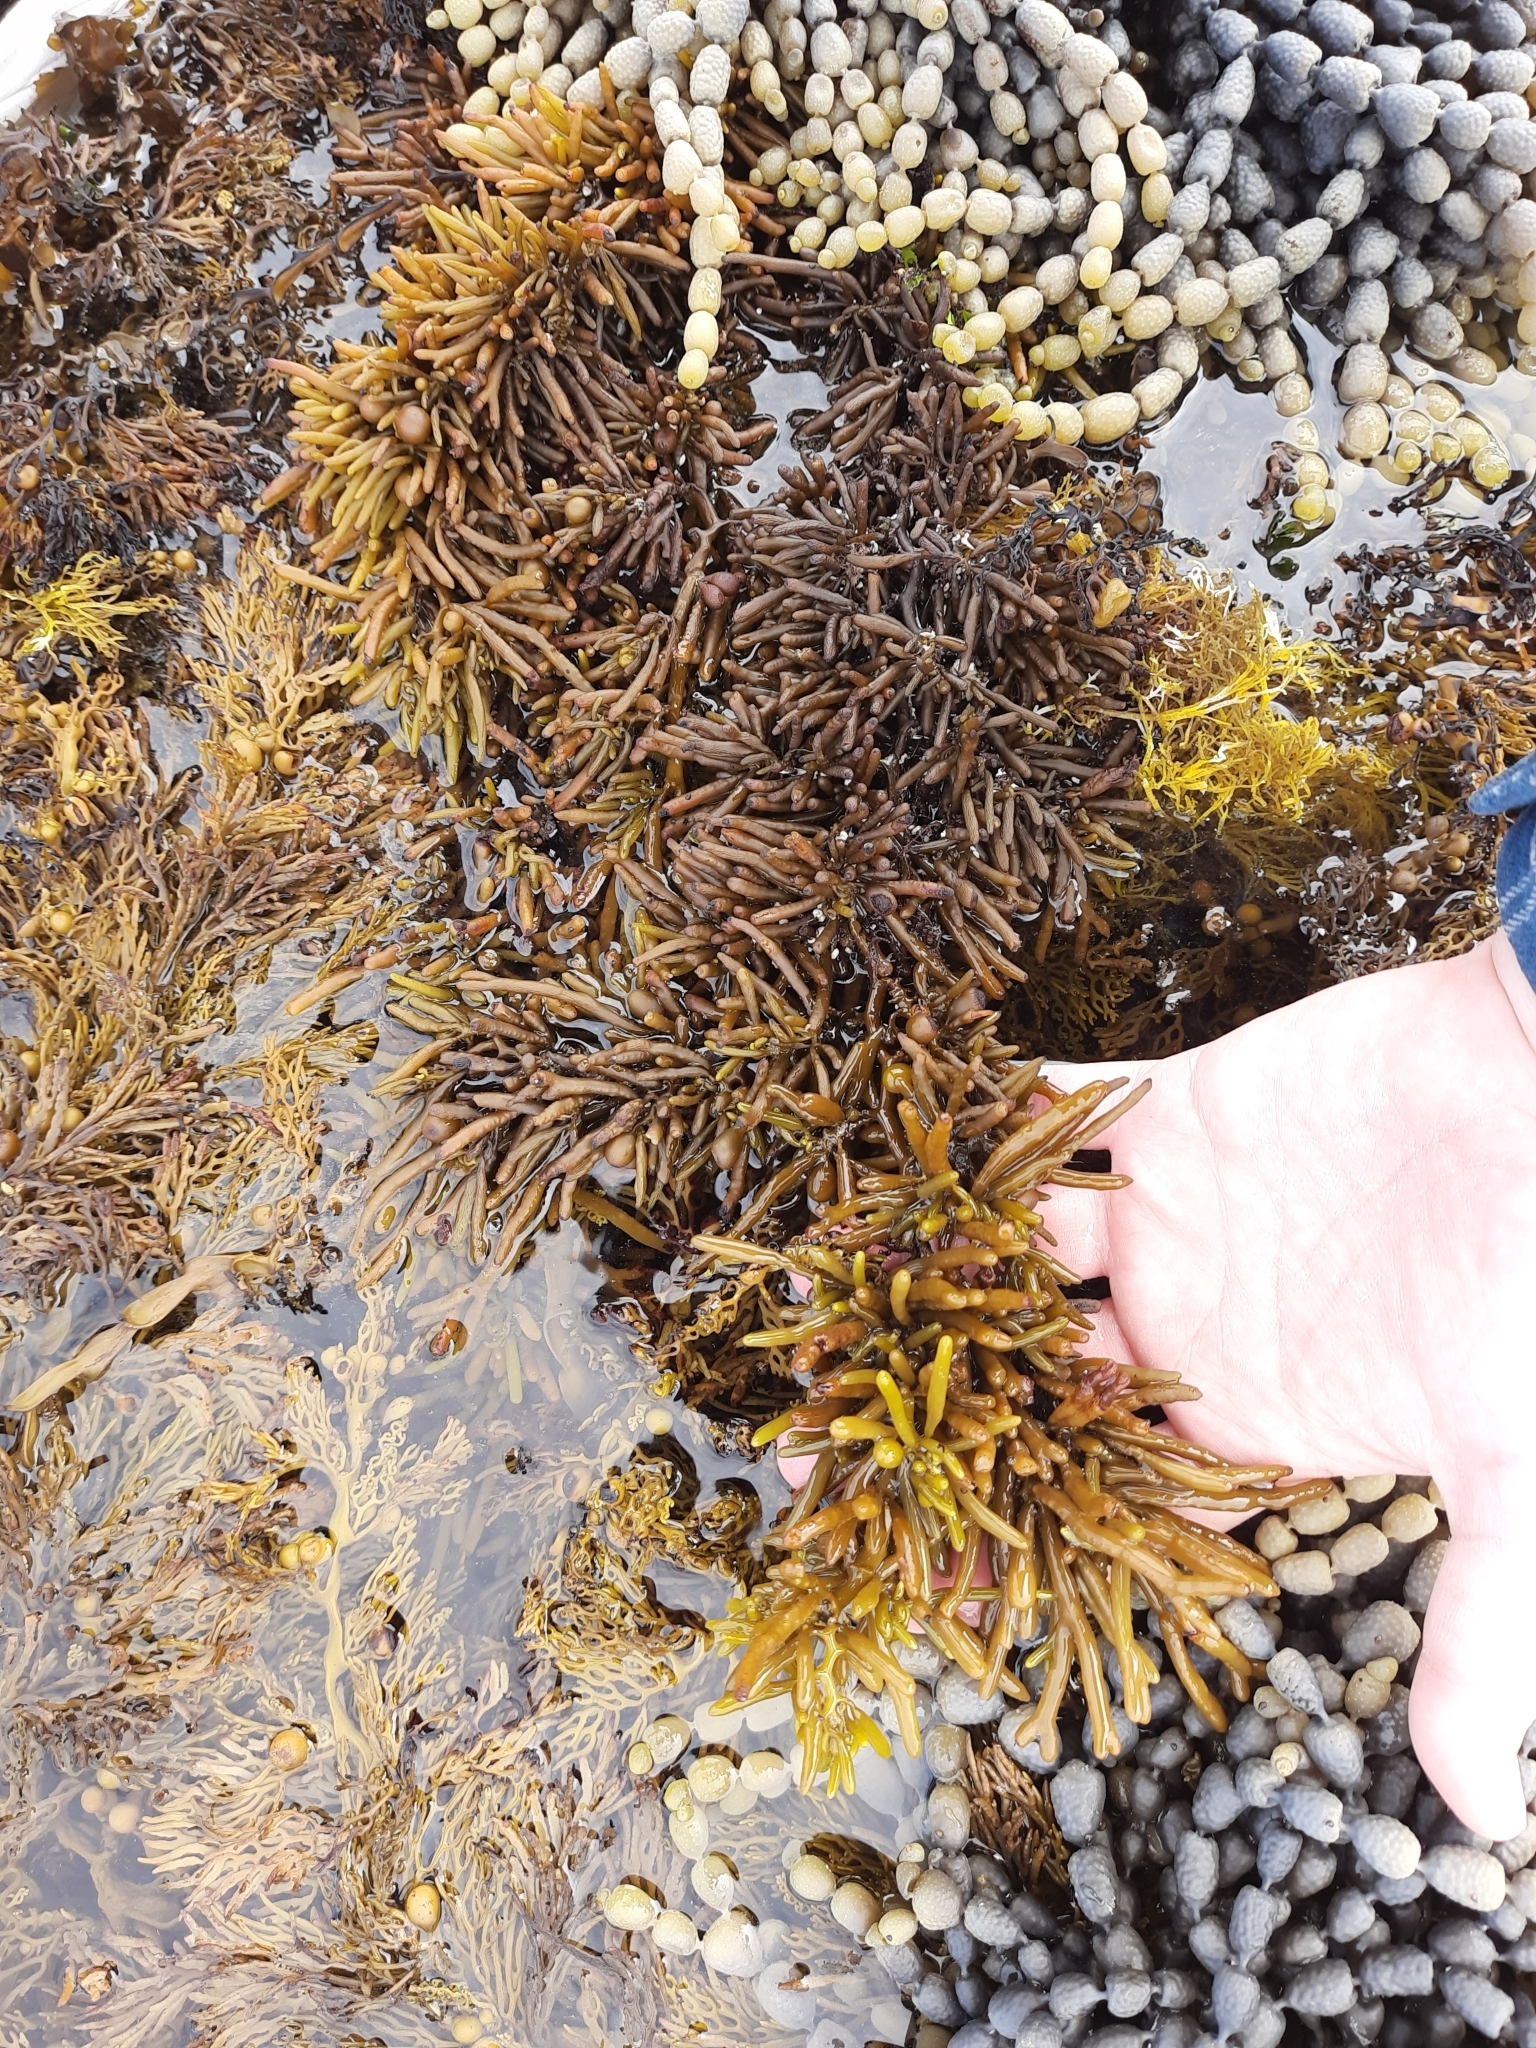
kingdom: Chromista
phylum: Ochrophyta
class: Phaeophyceae
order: Fucales
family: Sargassaceae
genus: Cystophora
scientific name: Cystophora torulosa
